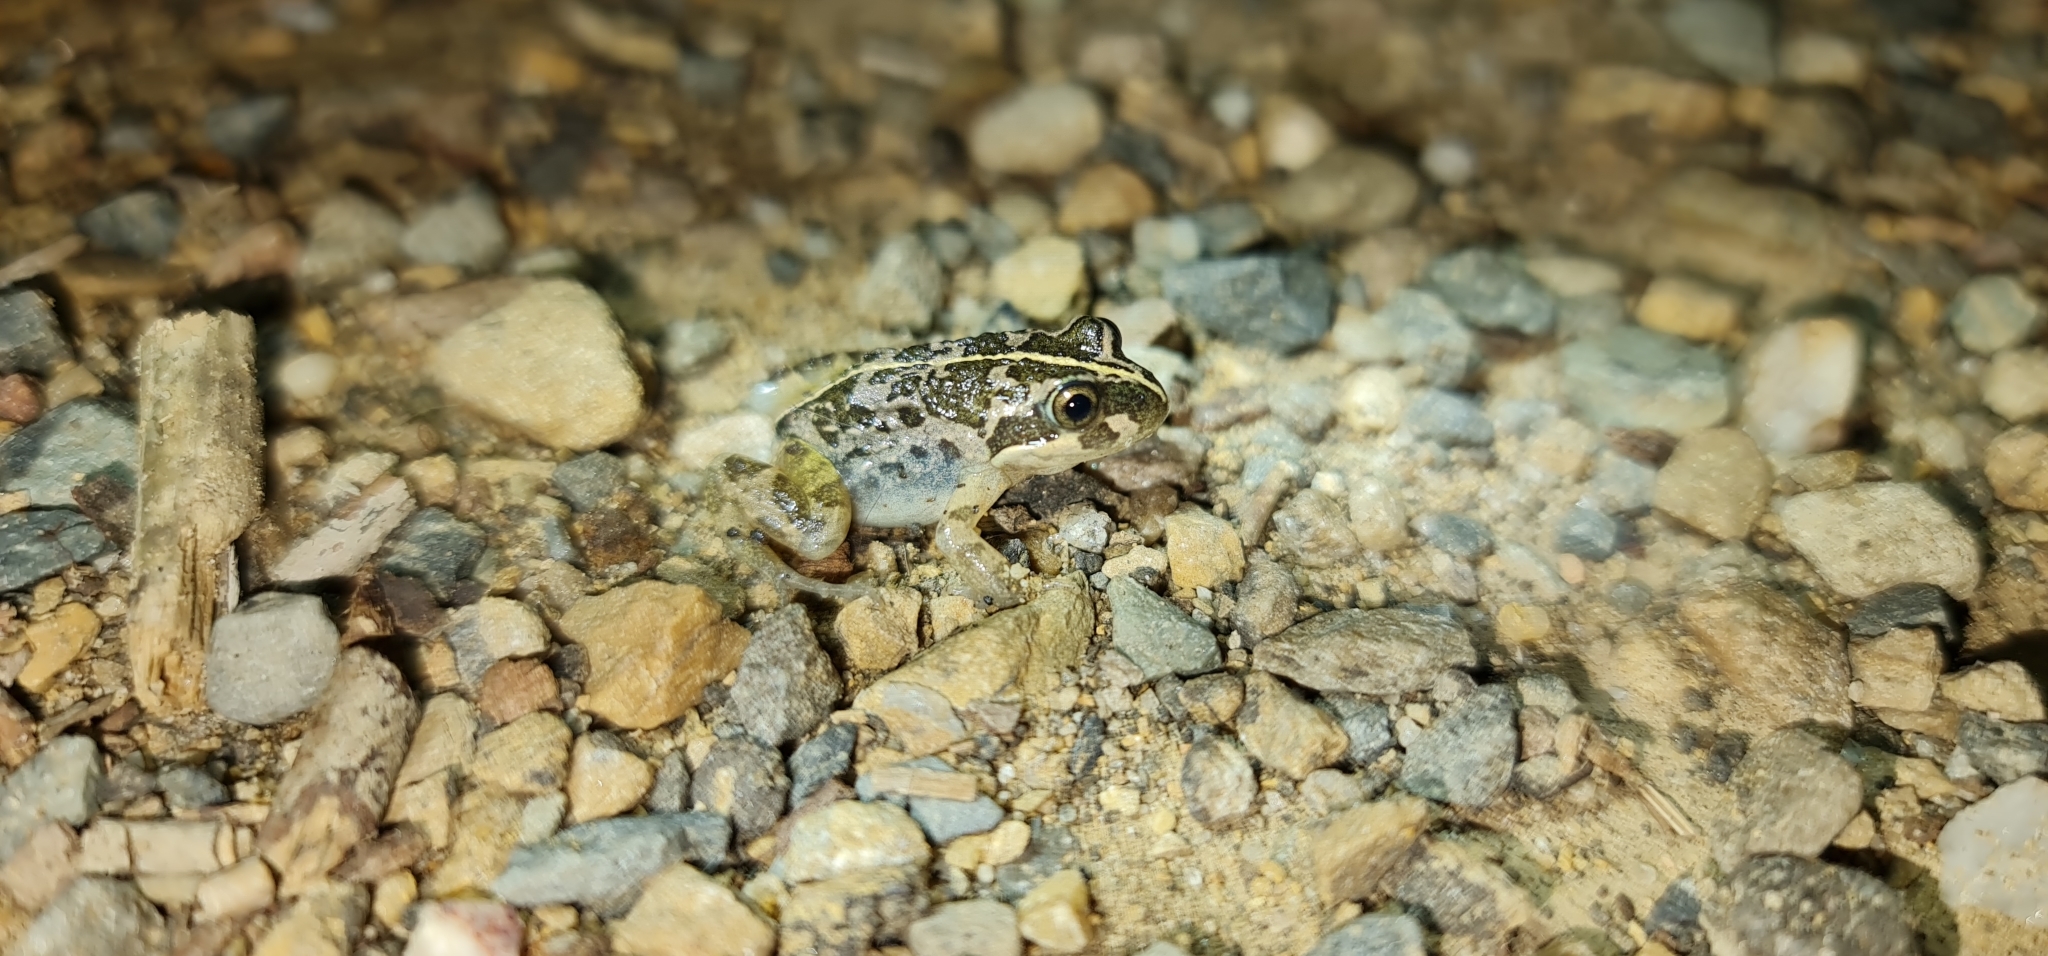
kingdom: Animalia
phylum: Chordata
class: Amphibia
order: Anura
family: Limnodynastidae
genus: Limnodynastes
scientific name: Limnodynastes tasmaniensis
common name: Spotted marsh frog
